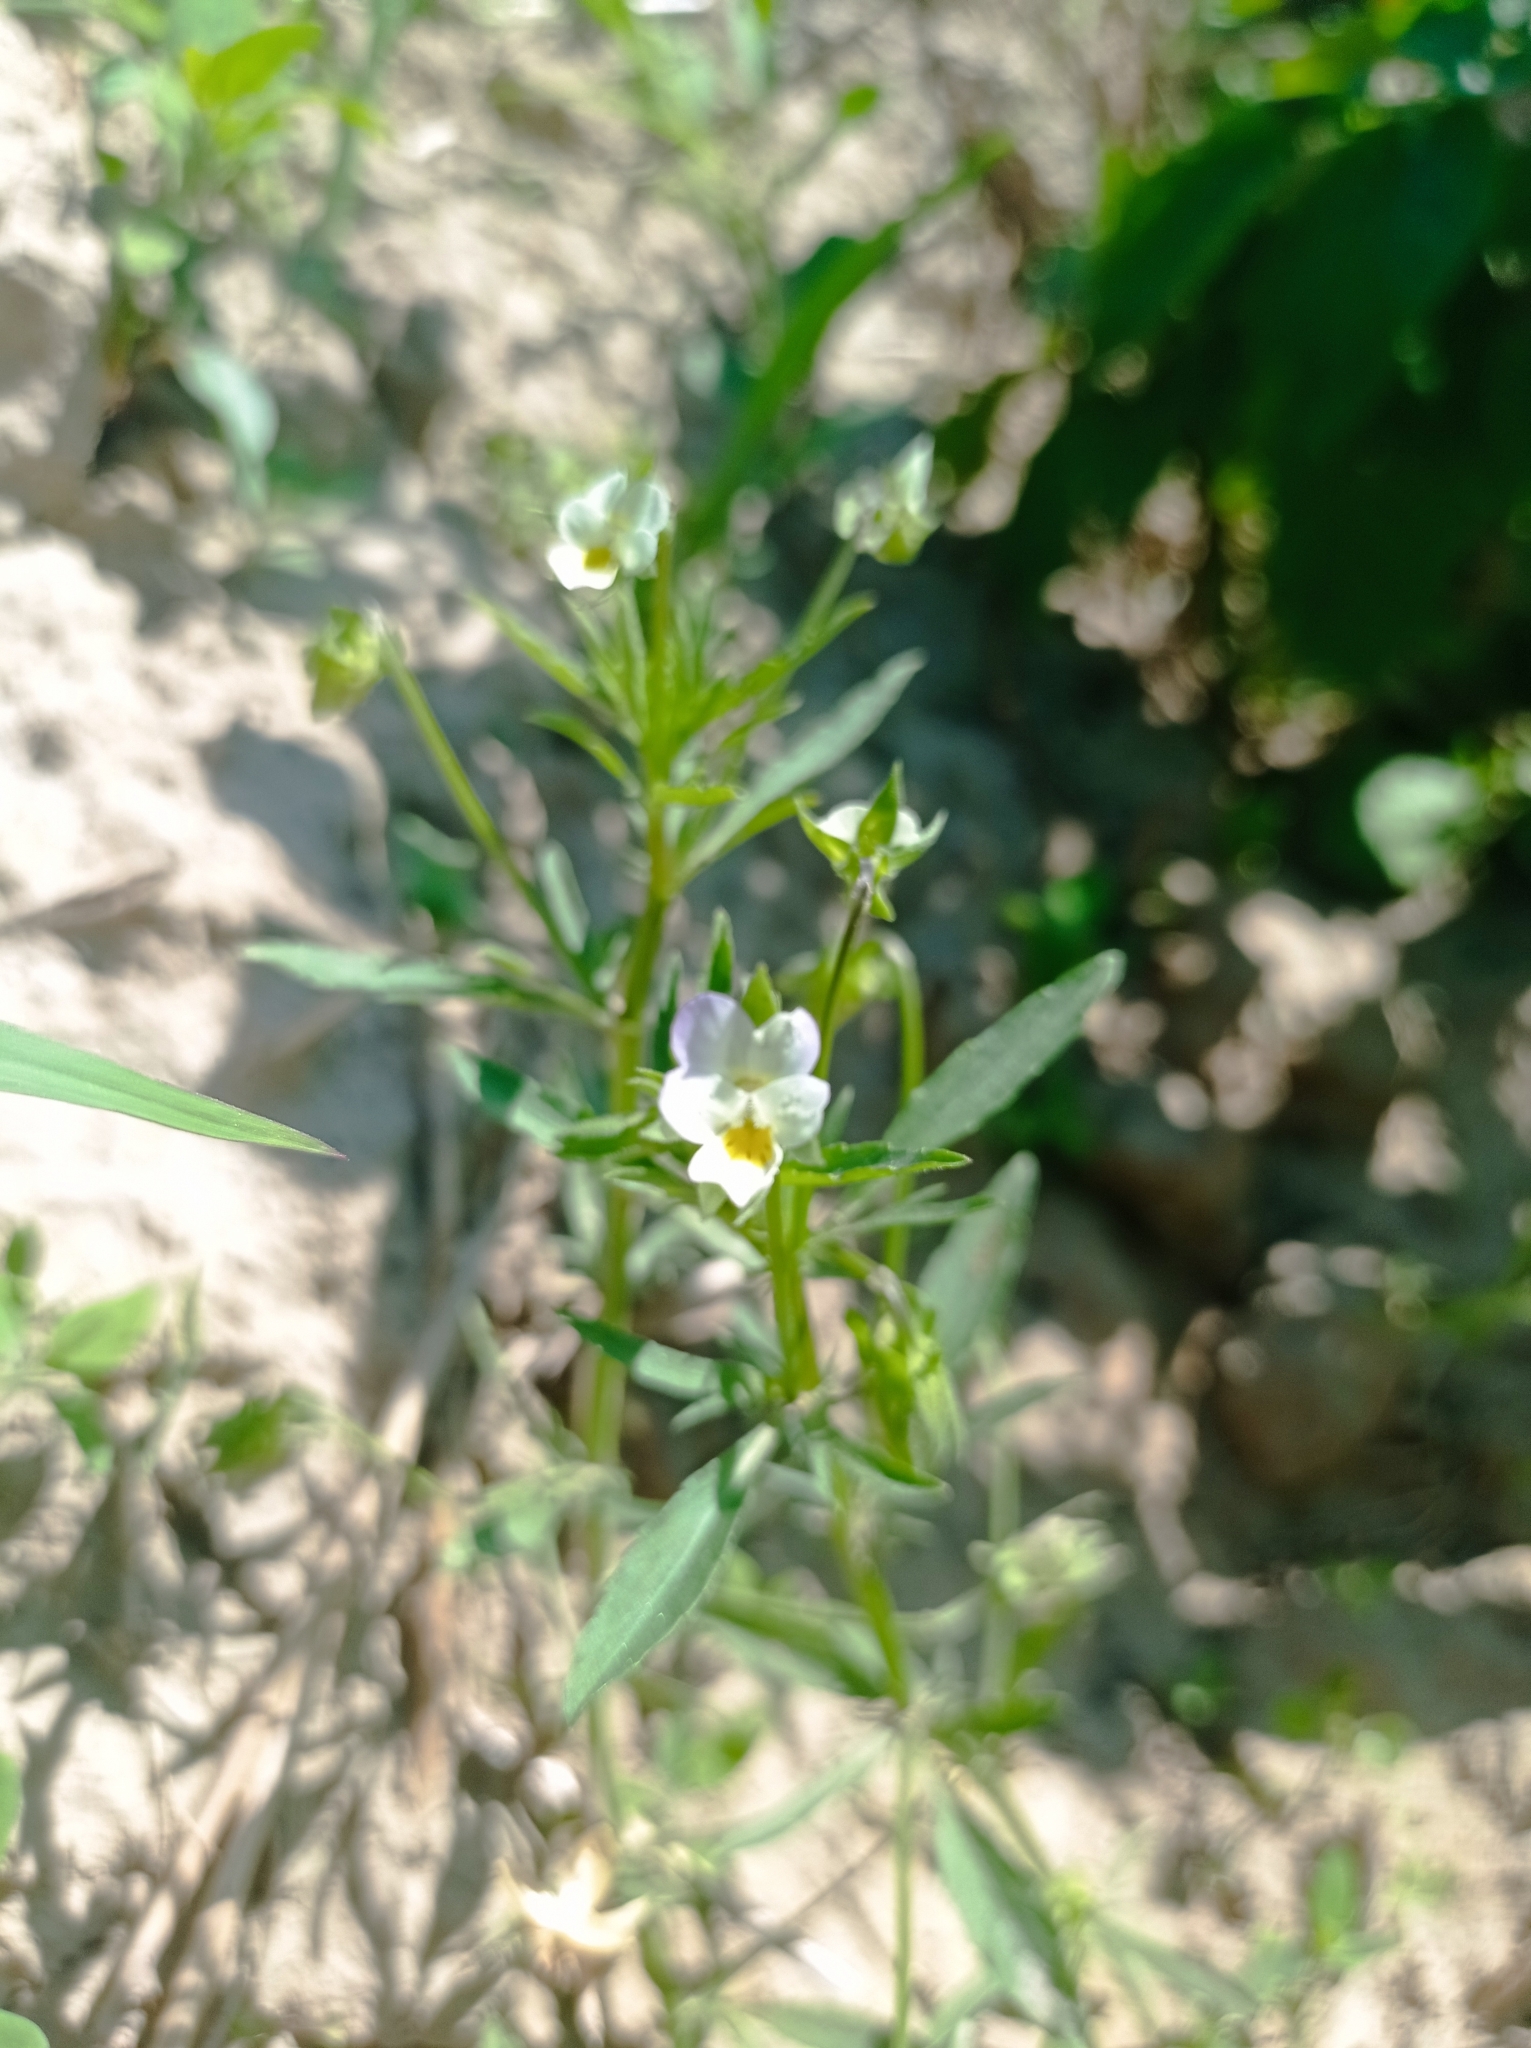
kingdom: Plantae
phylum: Tracheophyta
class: Magnoliopsida
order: Malpighiales
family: Violaceae
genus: Viola
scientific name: Viola arvensis
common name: Field pansy
